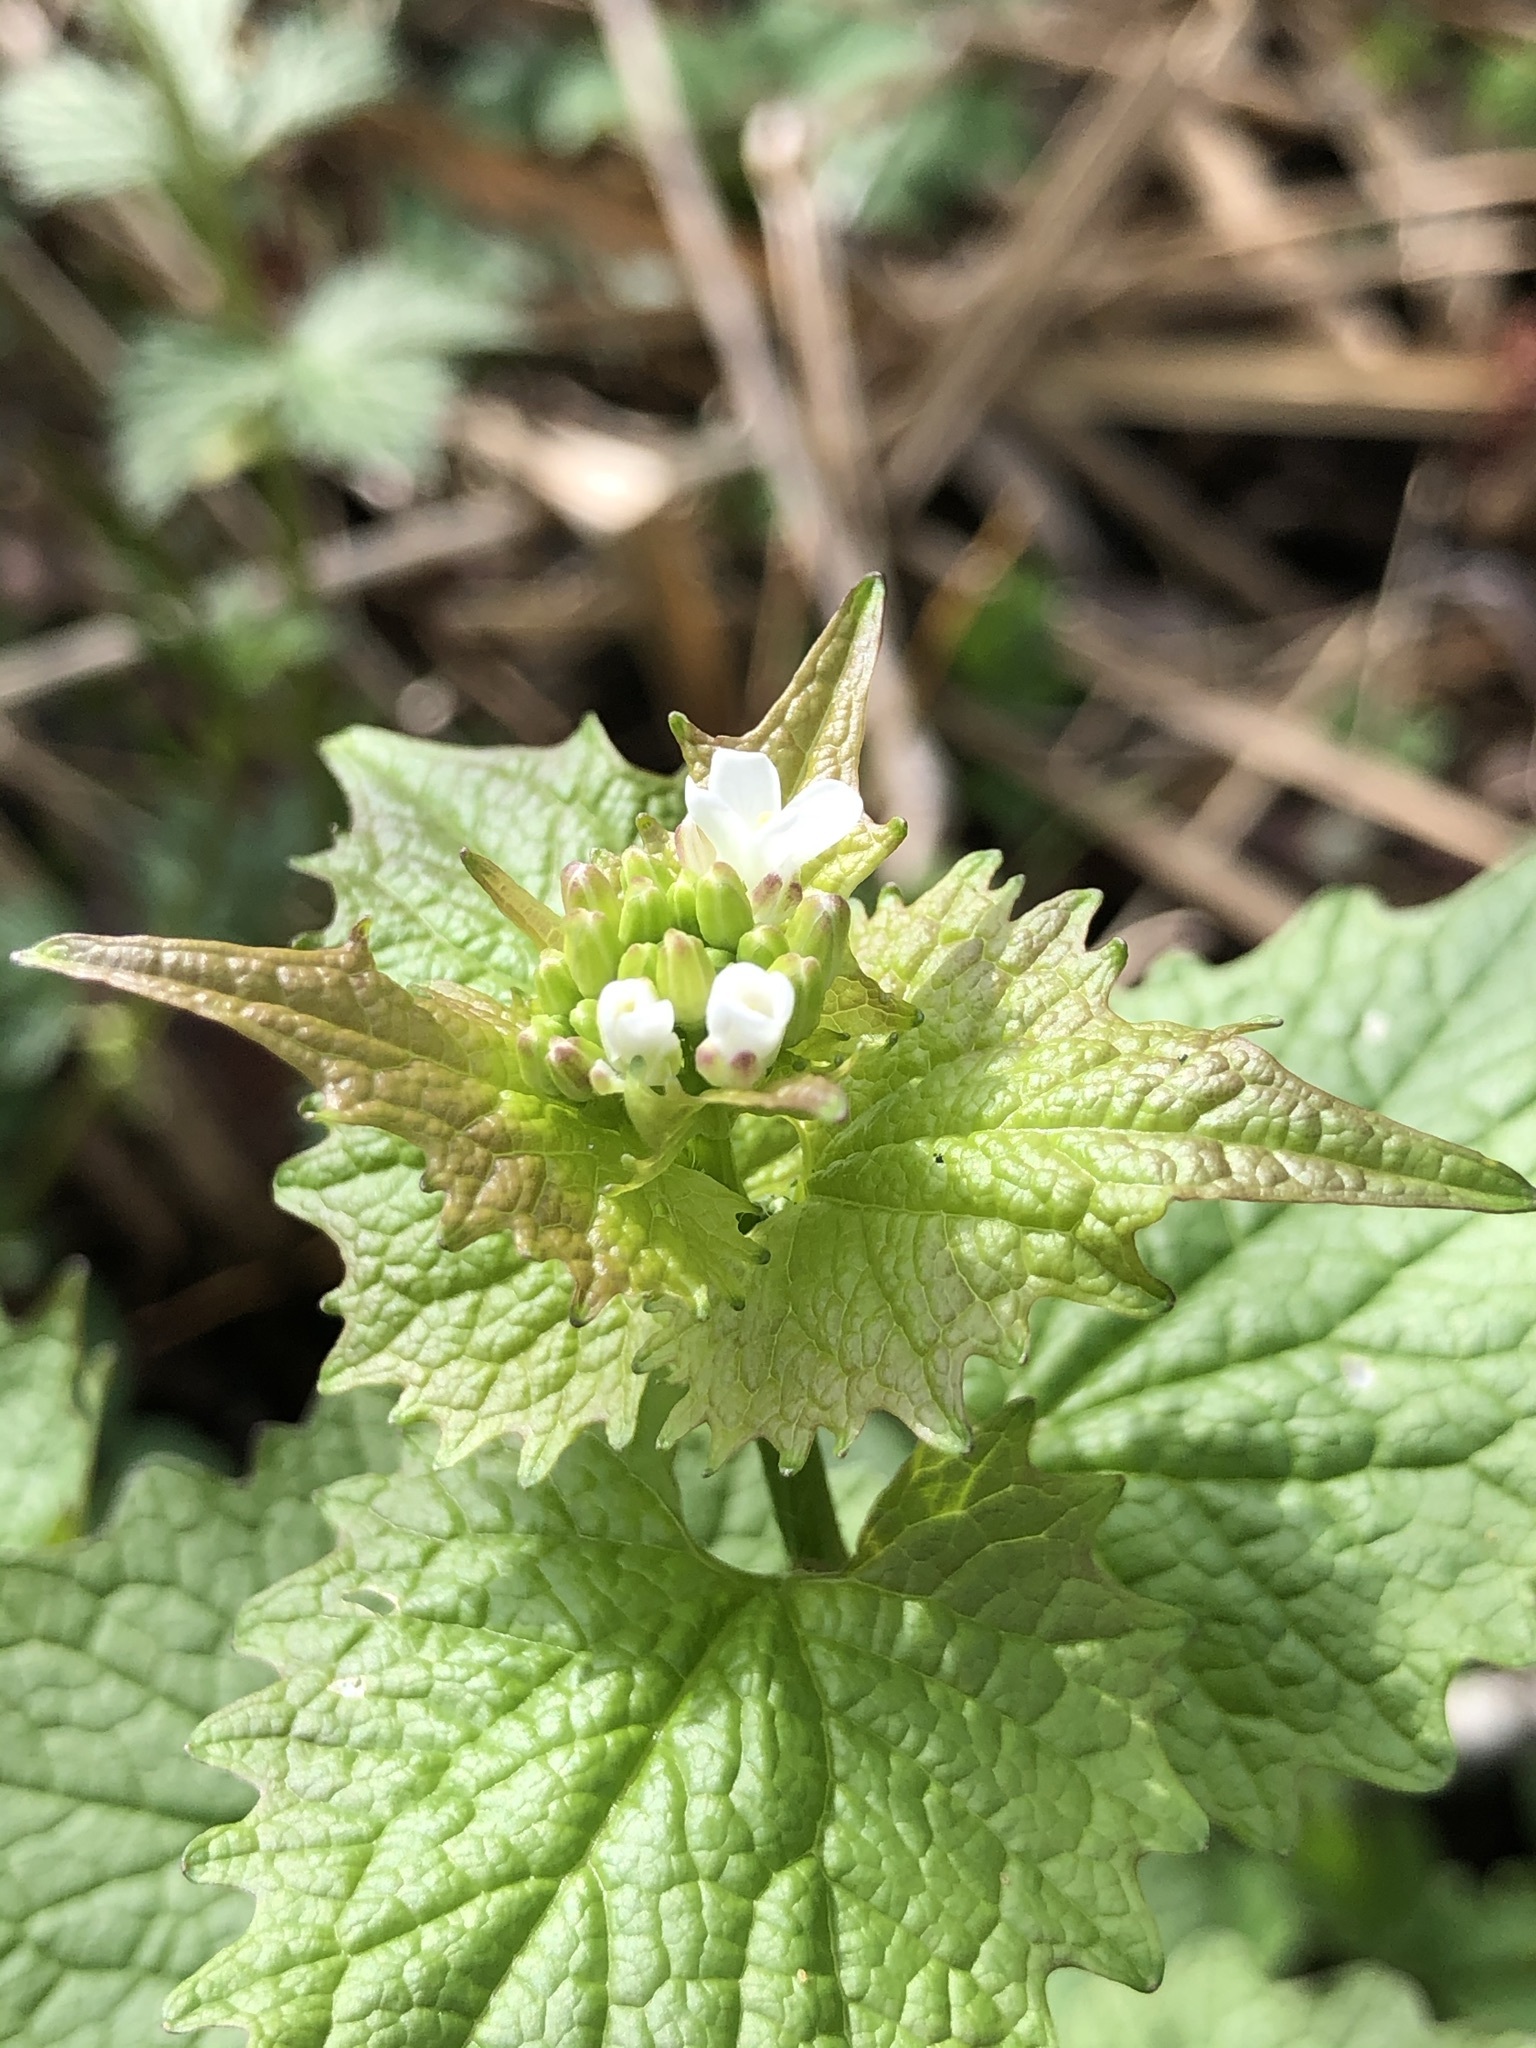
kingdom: Plantae
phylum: Tracheophyta
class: Magnoliopsida
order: Brassicales
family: Brassicaceae
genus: Alliaria
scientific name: Alliaria petiolata
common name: Garlic mustard
